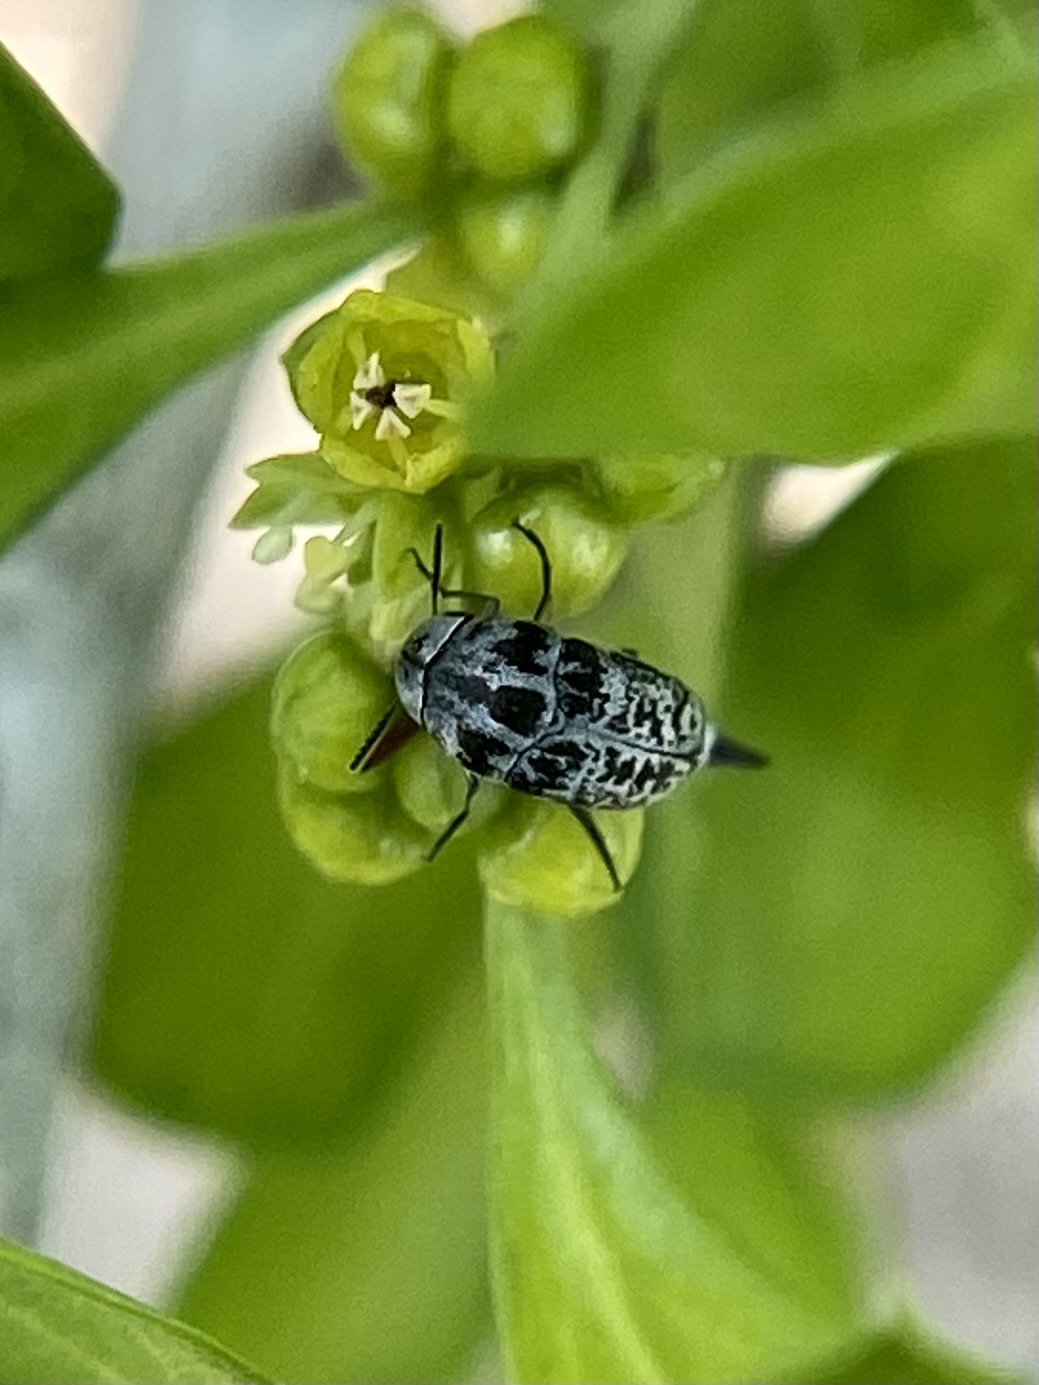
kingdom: Animalia
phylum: Arthropoda
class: Insecta
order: Coleoptera
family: Mordellidae
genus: Mordella
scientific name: Mordella marginata
